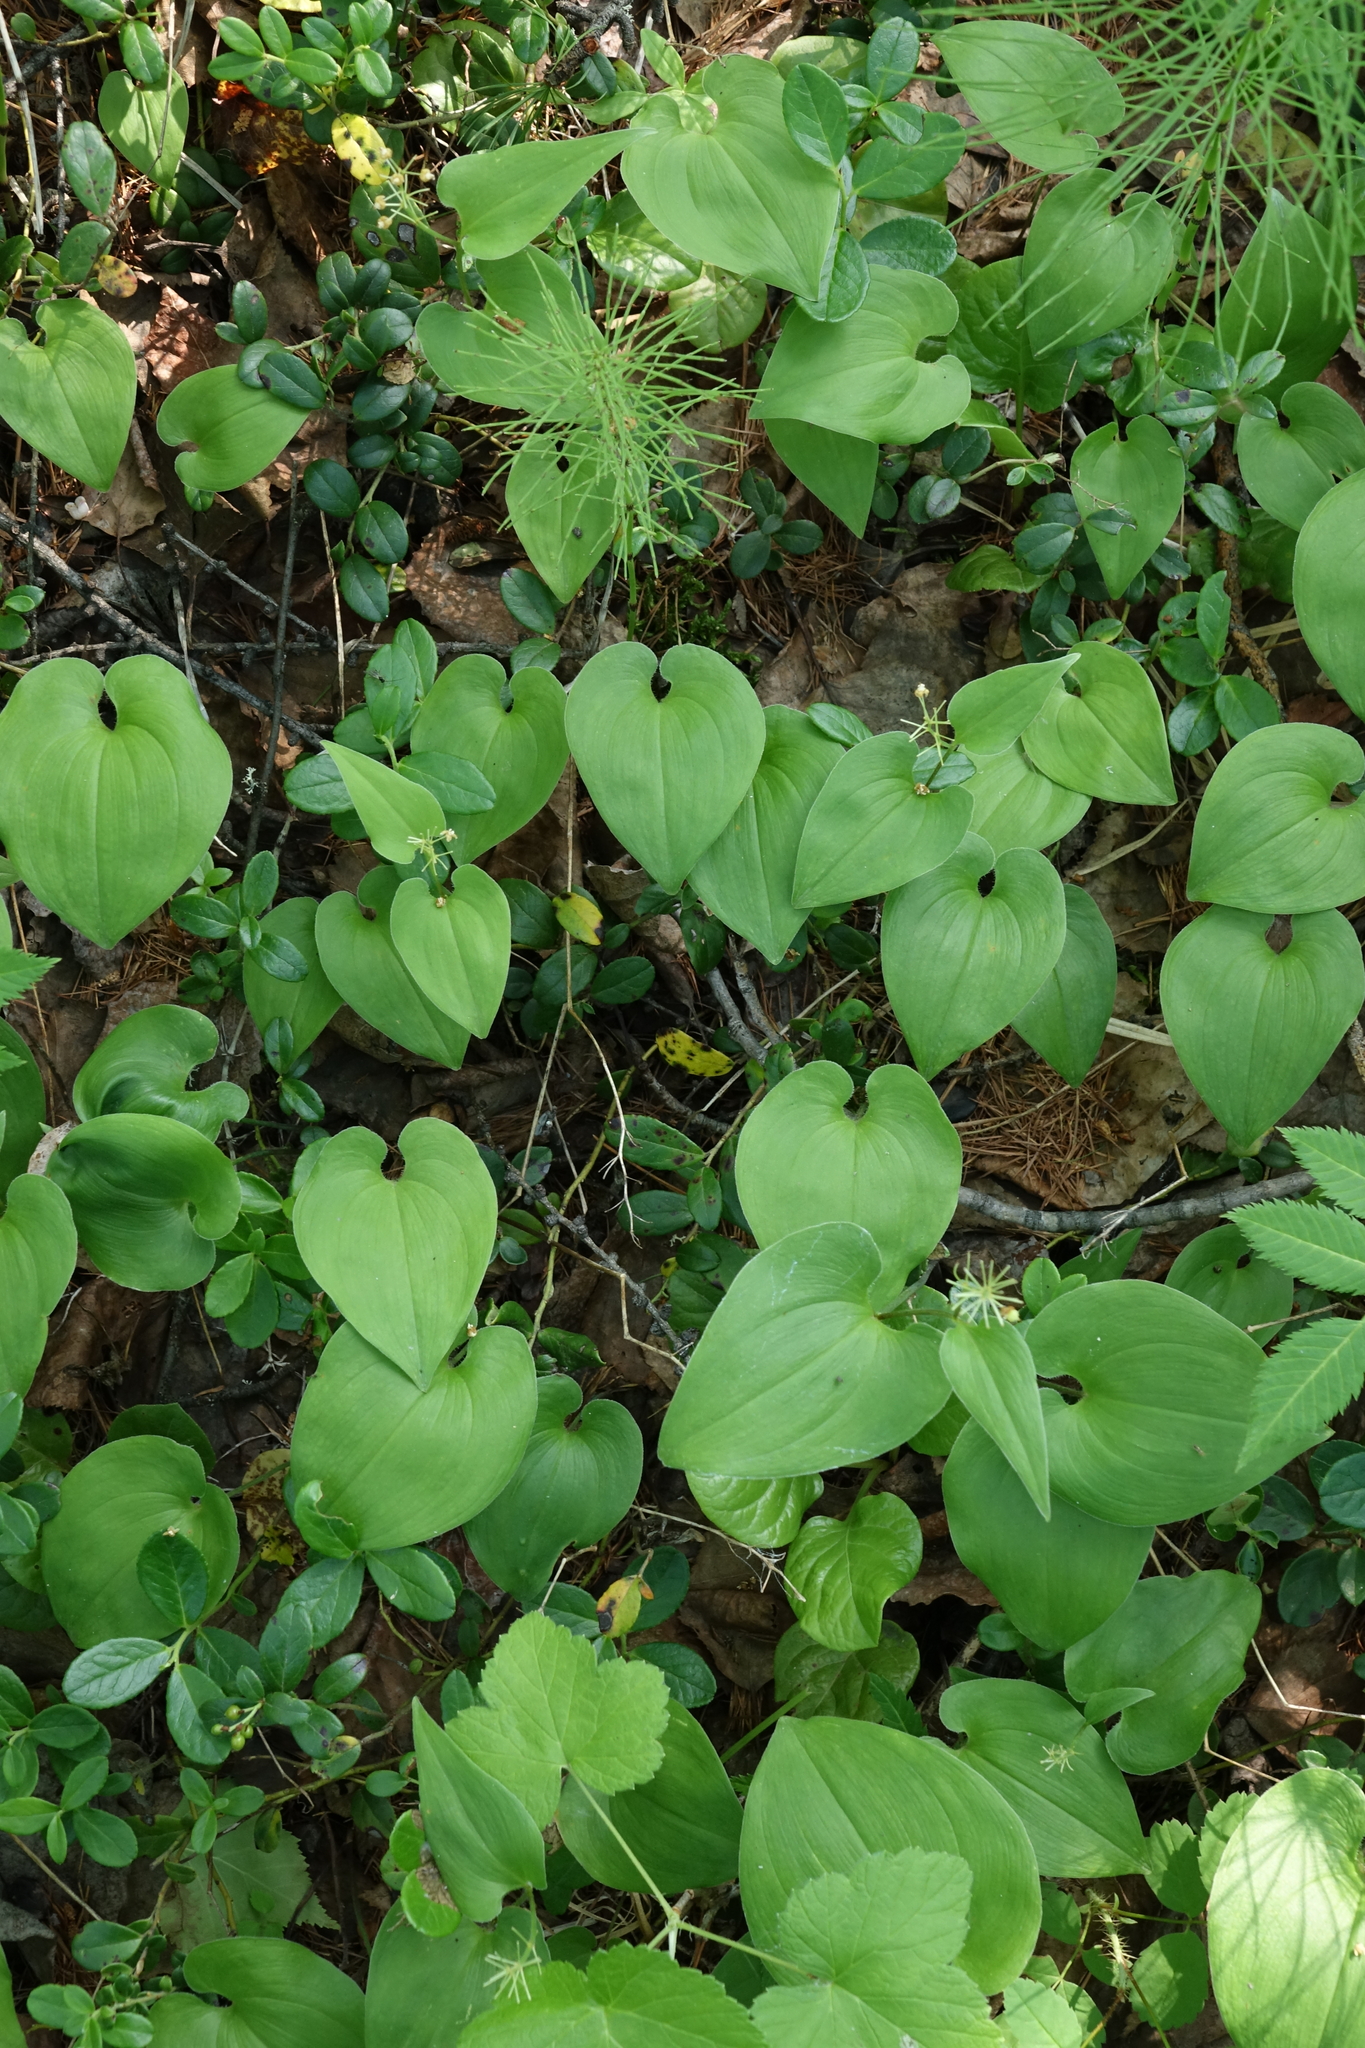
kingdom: Plantae
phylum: Tracheophyta
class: Liliopsida
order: Asparagales
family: Asparagaceae
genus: Maianthemum
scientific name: Maianthemum bifolium
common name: May lily
